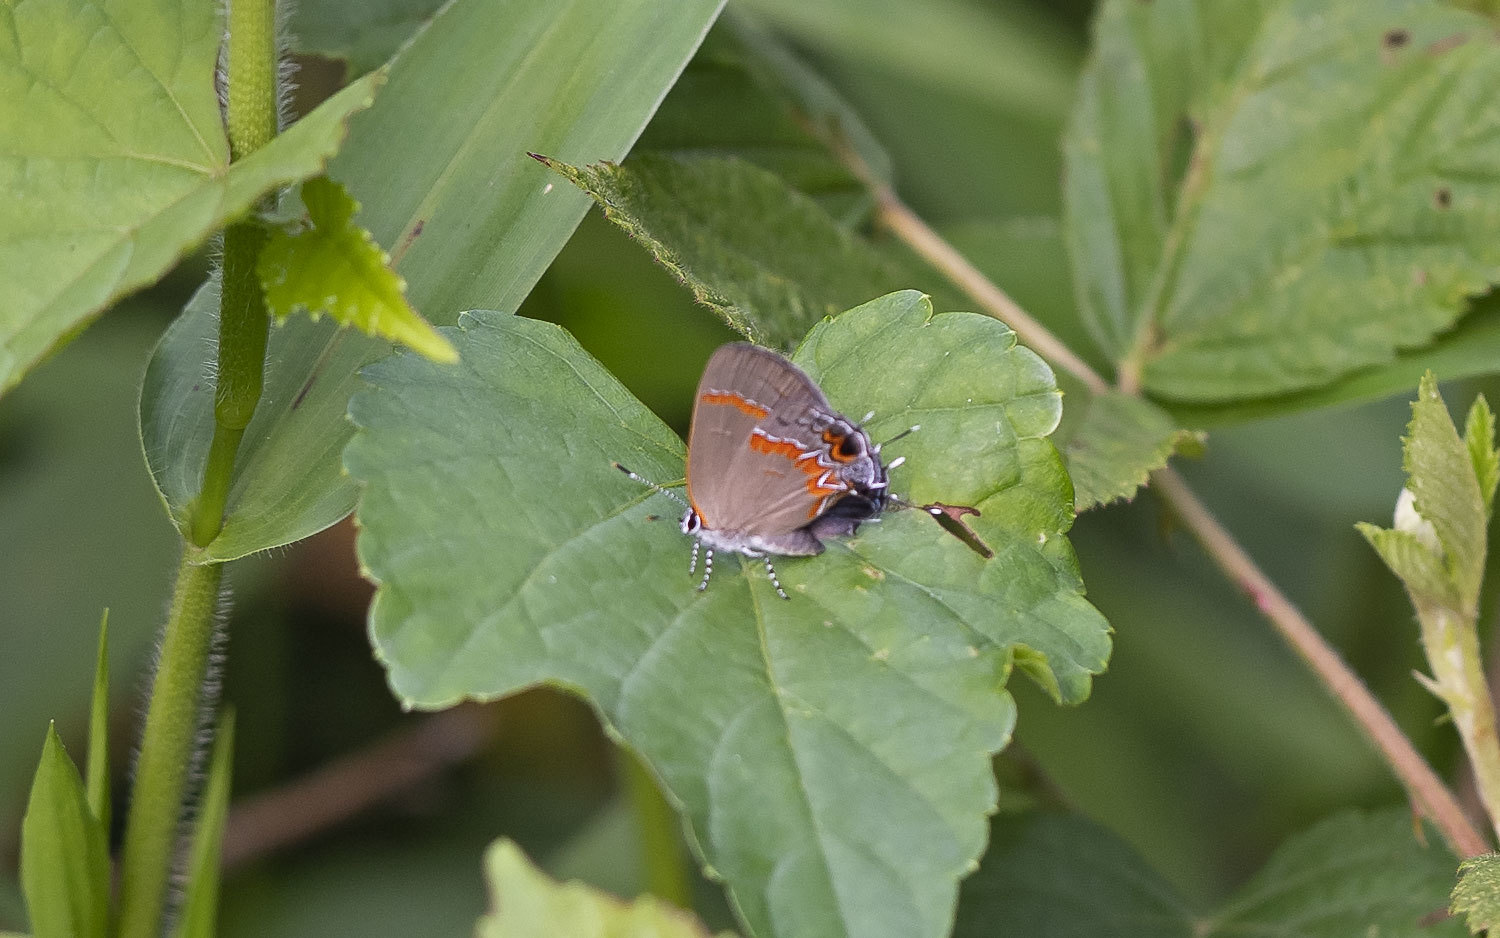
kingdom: Animalia
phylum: Arthropoda
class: Insecta
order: Lepidoptera
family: Lycaenidae
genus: Calycopis
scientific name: Calycopis cecrops
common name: Red-banded hairstreak
